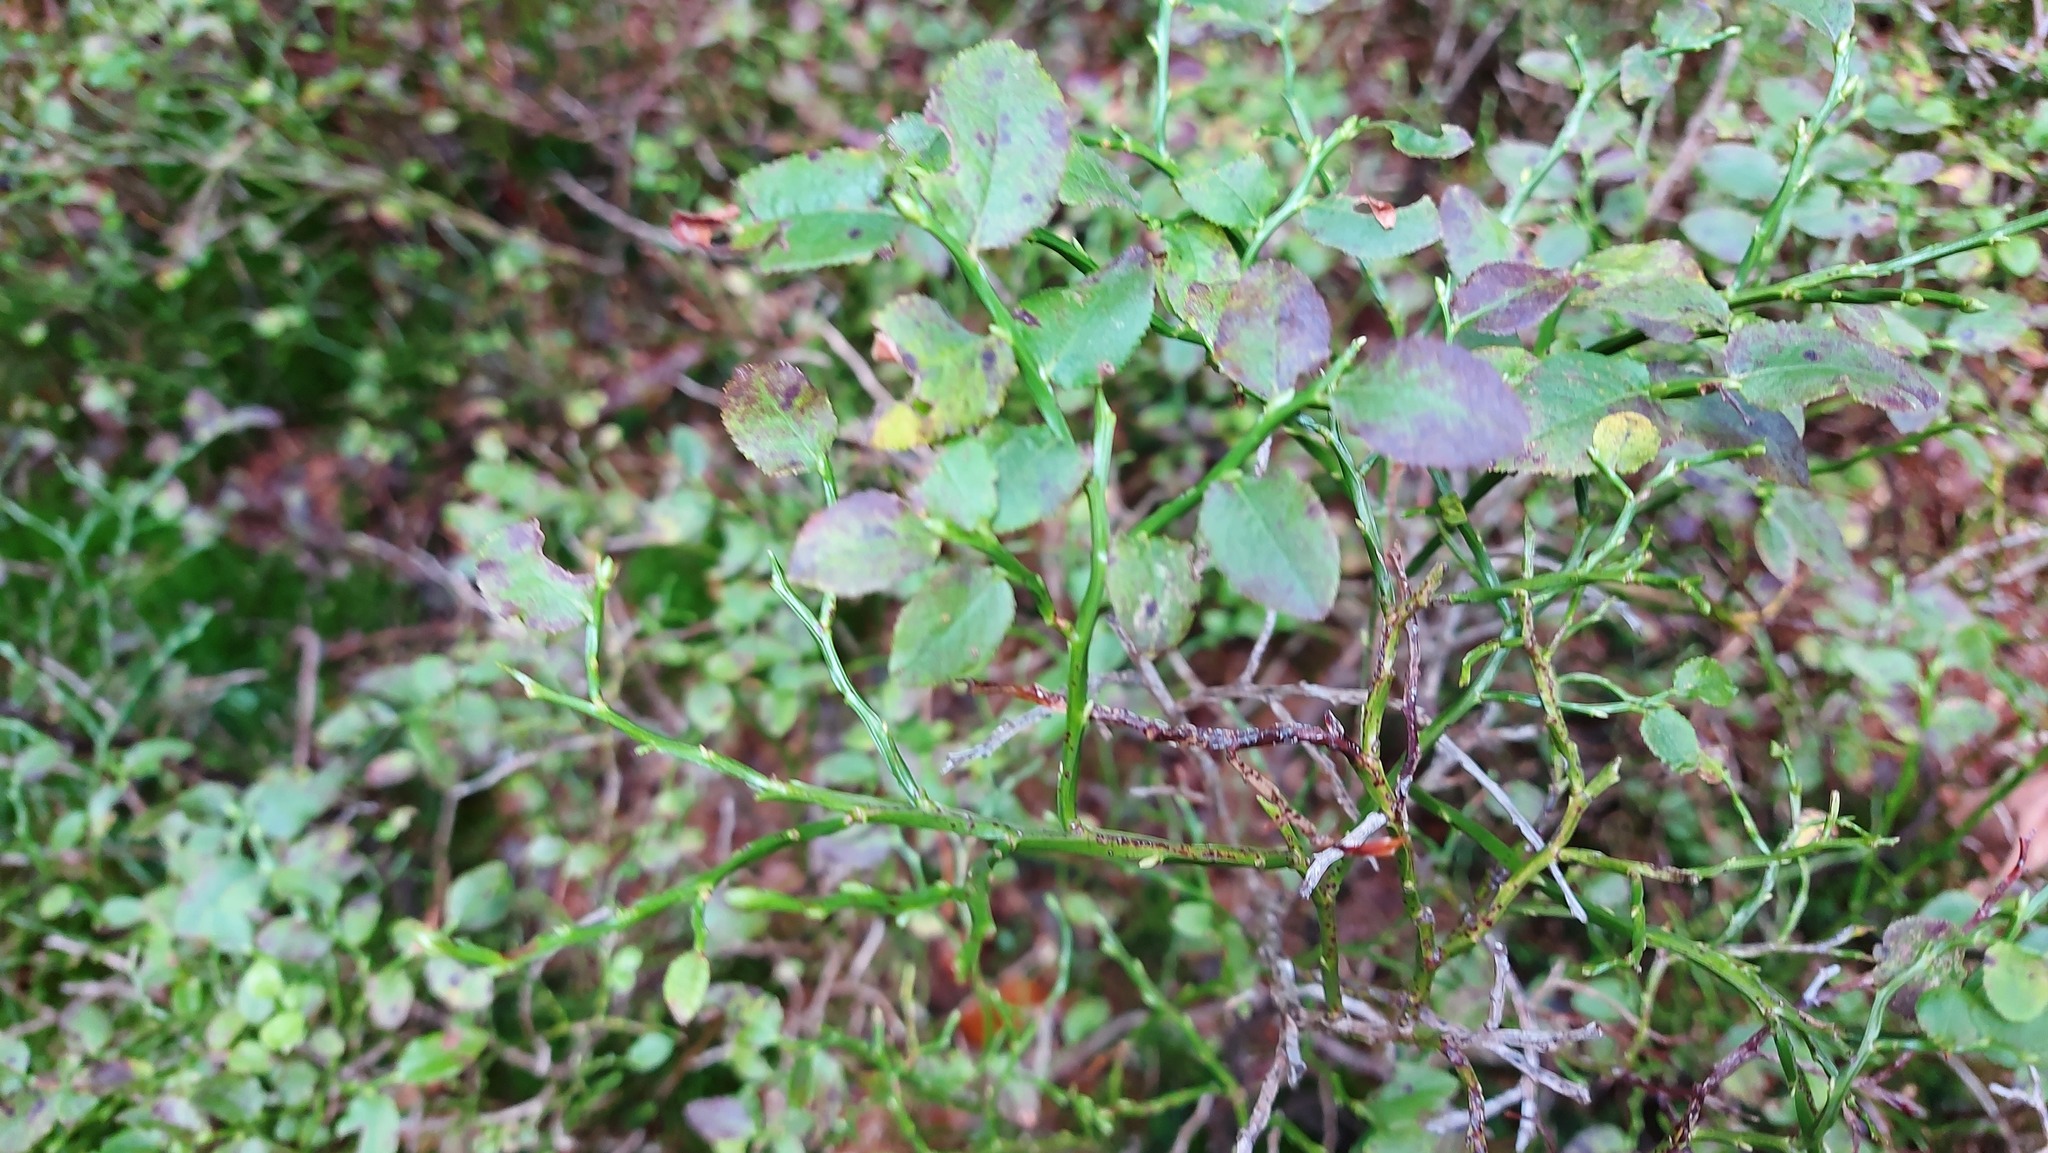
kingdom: Plantae
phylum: Tracheophyta
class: Magnoliopsida
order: Ericales
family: Ericaceae
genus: Vaccinium
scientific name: Vaccinium myrtillus
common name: Bilberry
